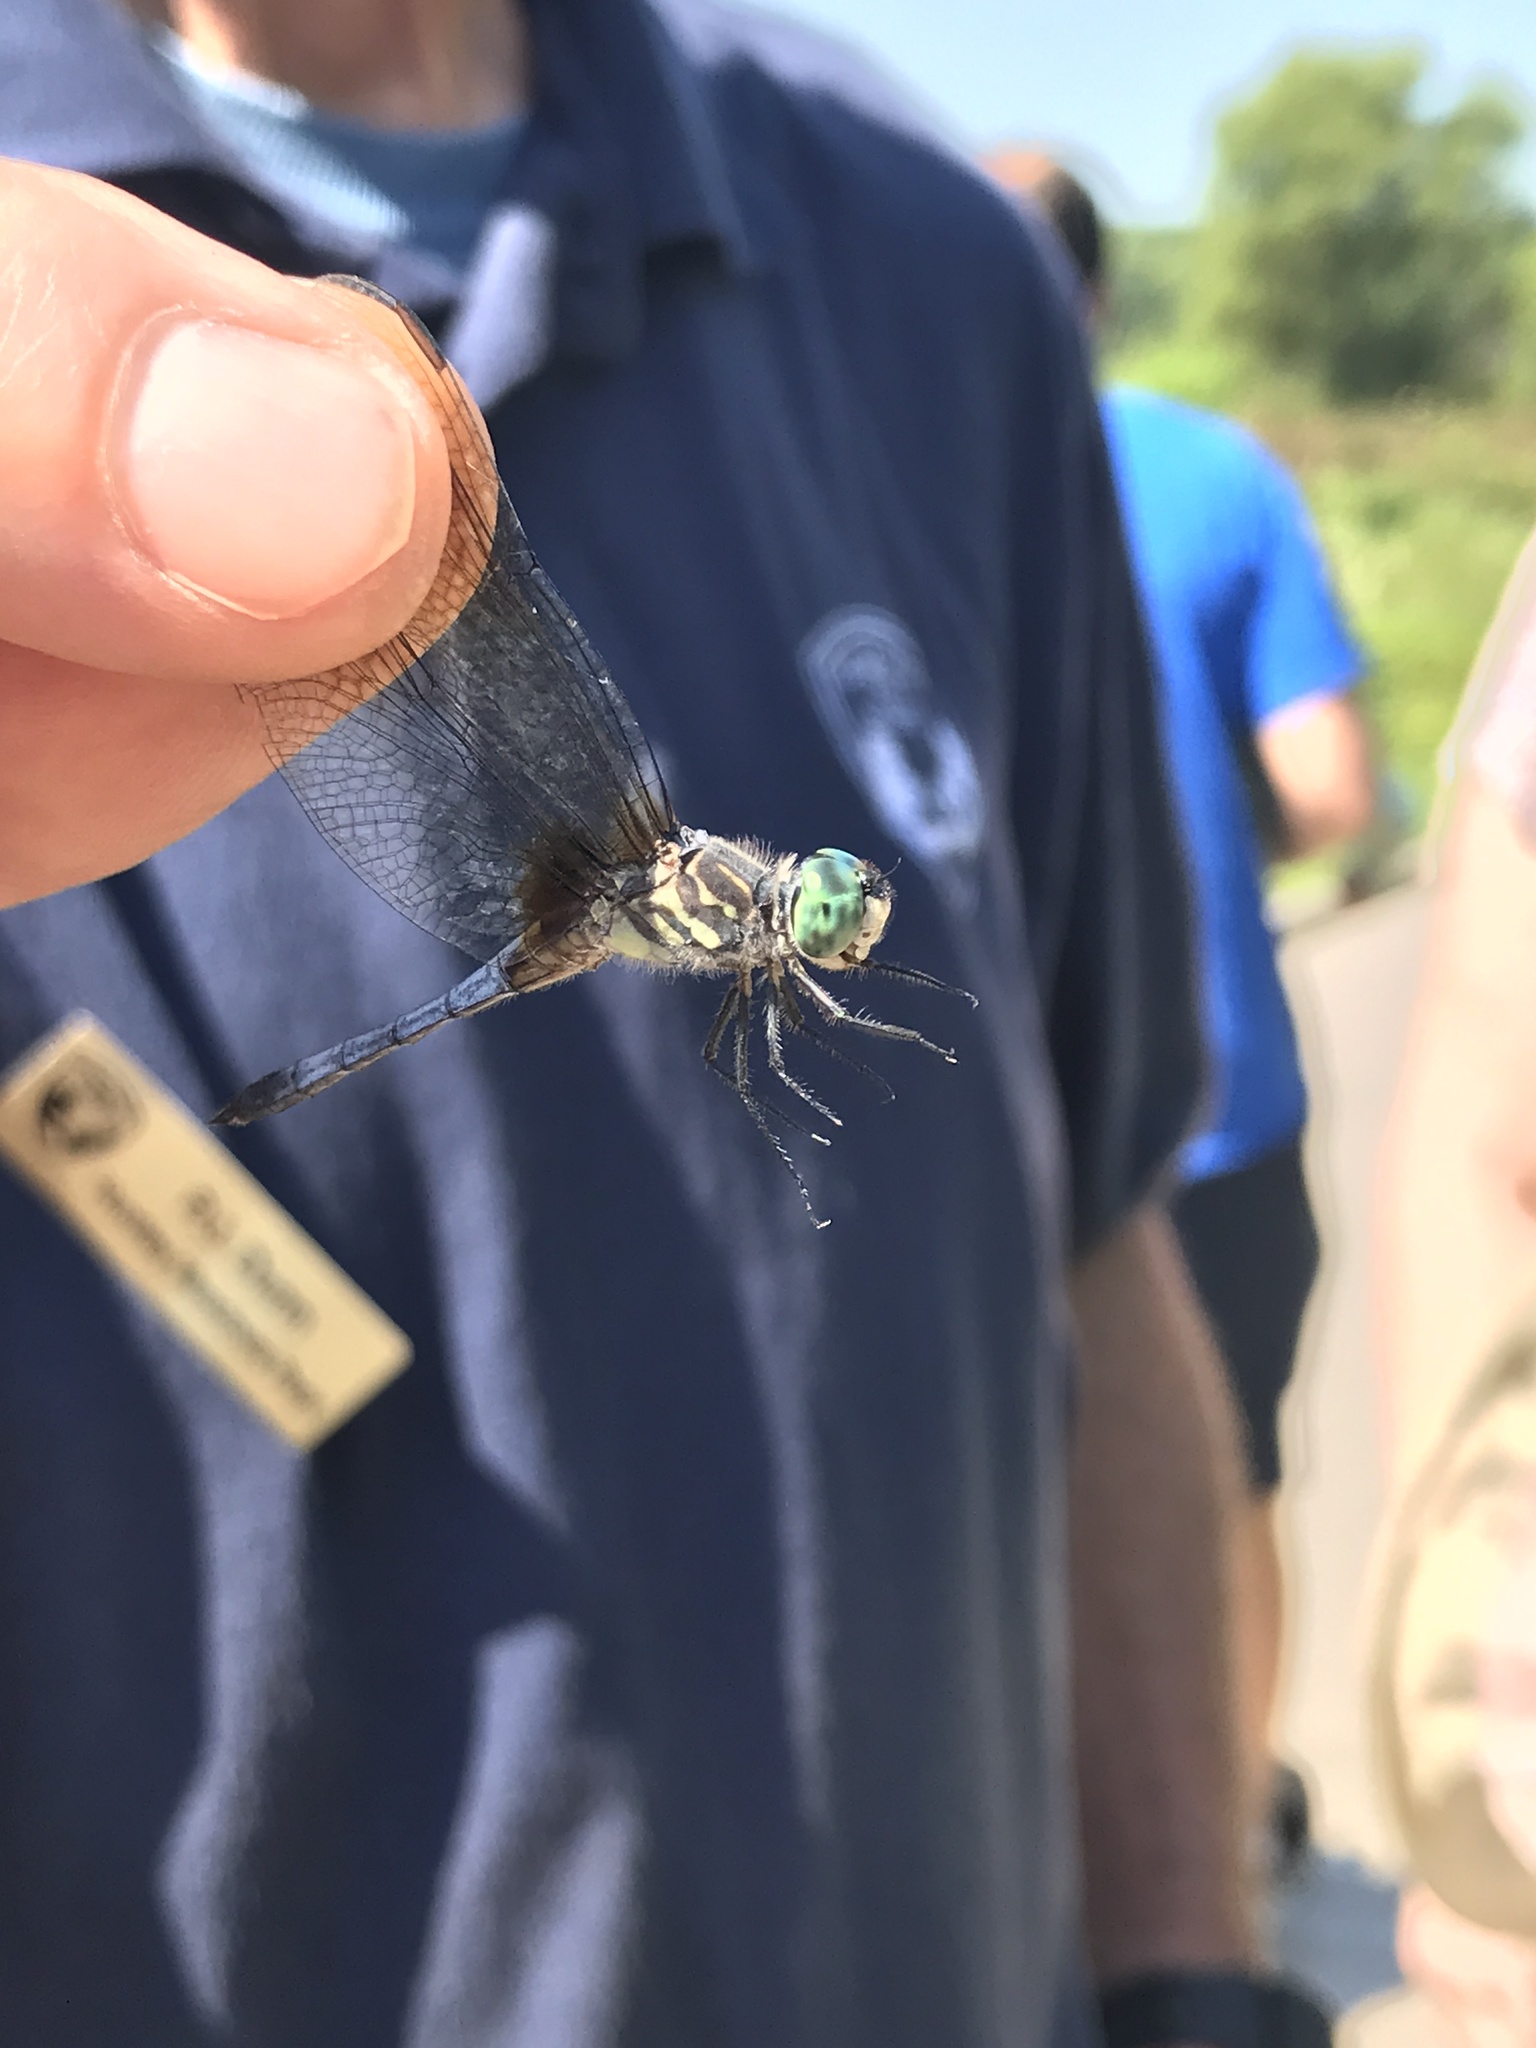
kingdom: Animalia
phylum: Arthropoda
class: Insecta
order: Odonata
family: Libellulidae
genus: Pachydiplax
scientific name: Pachydiplax longipennis
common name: Blue dasher
